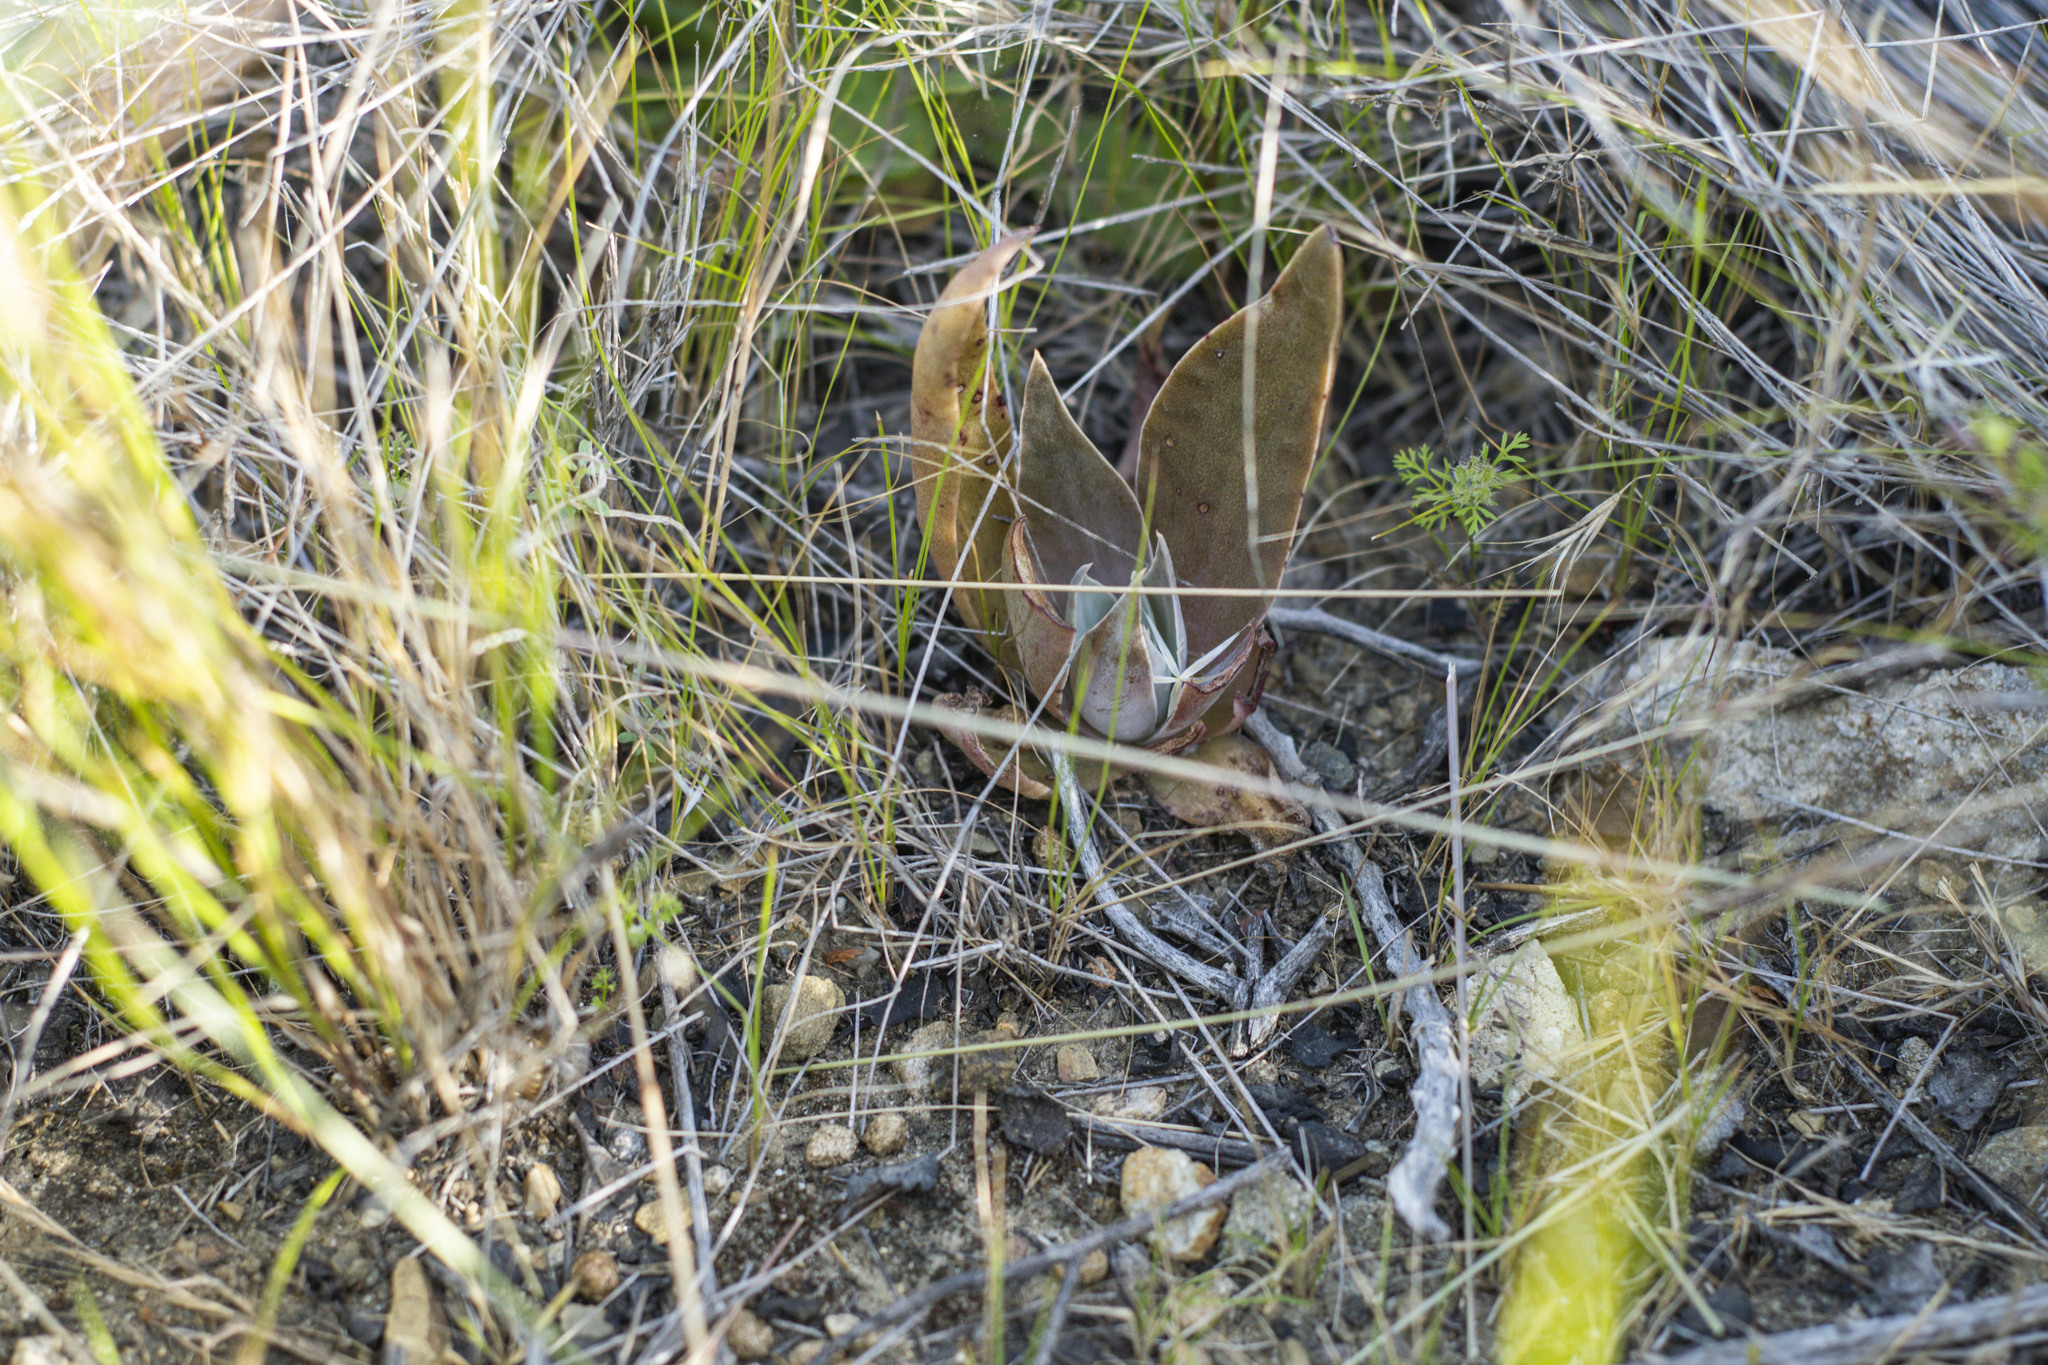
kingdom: Plantae
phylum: Tracheophyta
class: Magnoliopsida
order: Saxifragales
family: Crassulaceae
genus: Dudleya
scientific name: Dudleya
